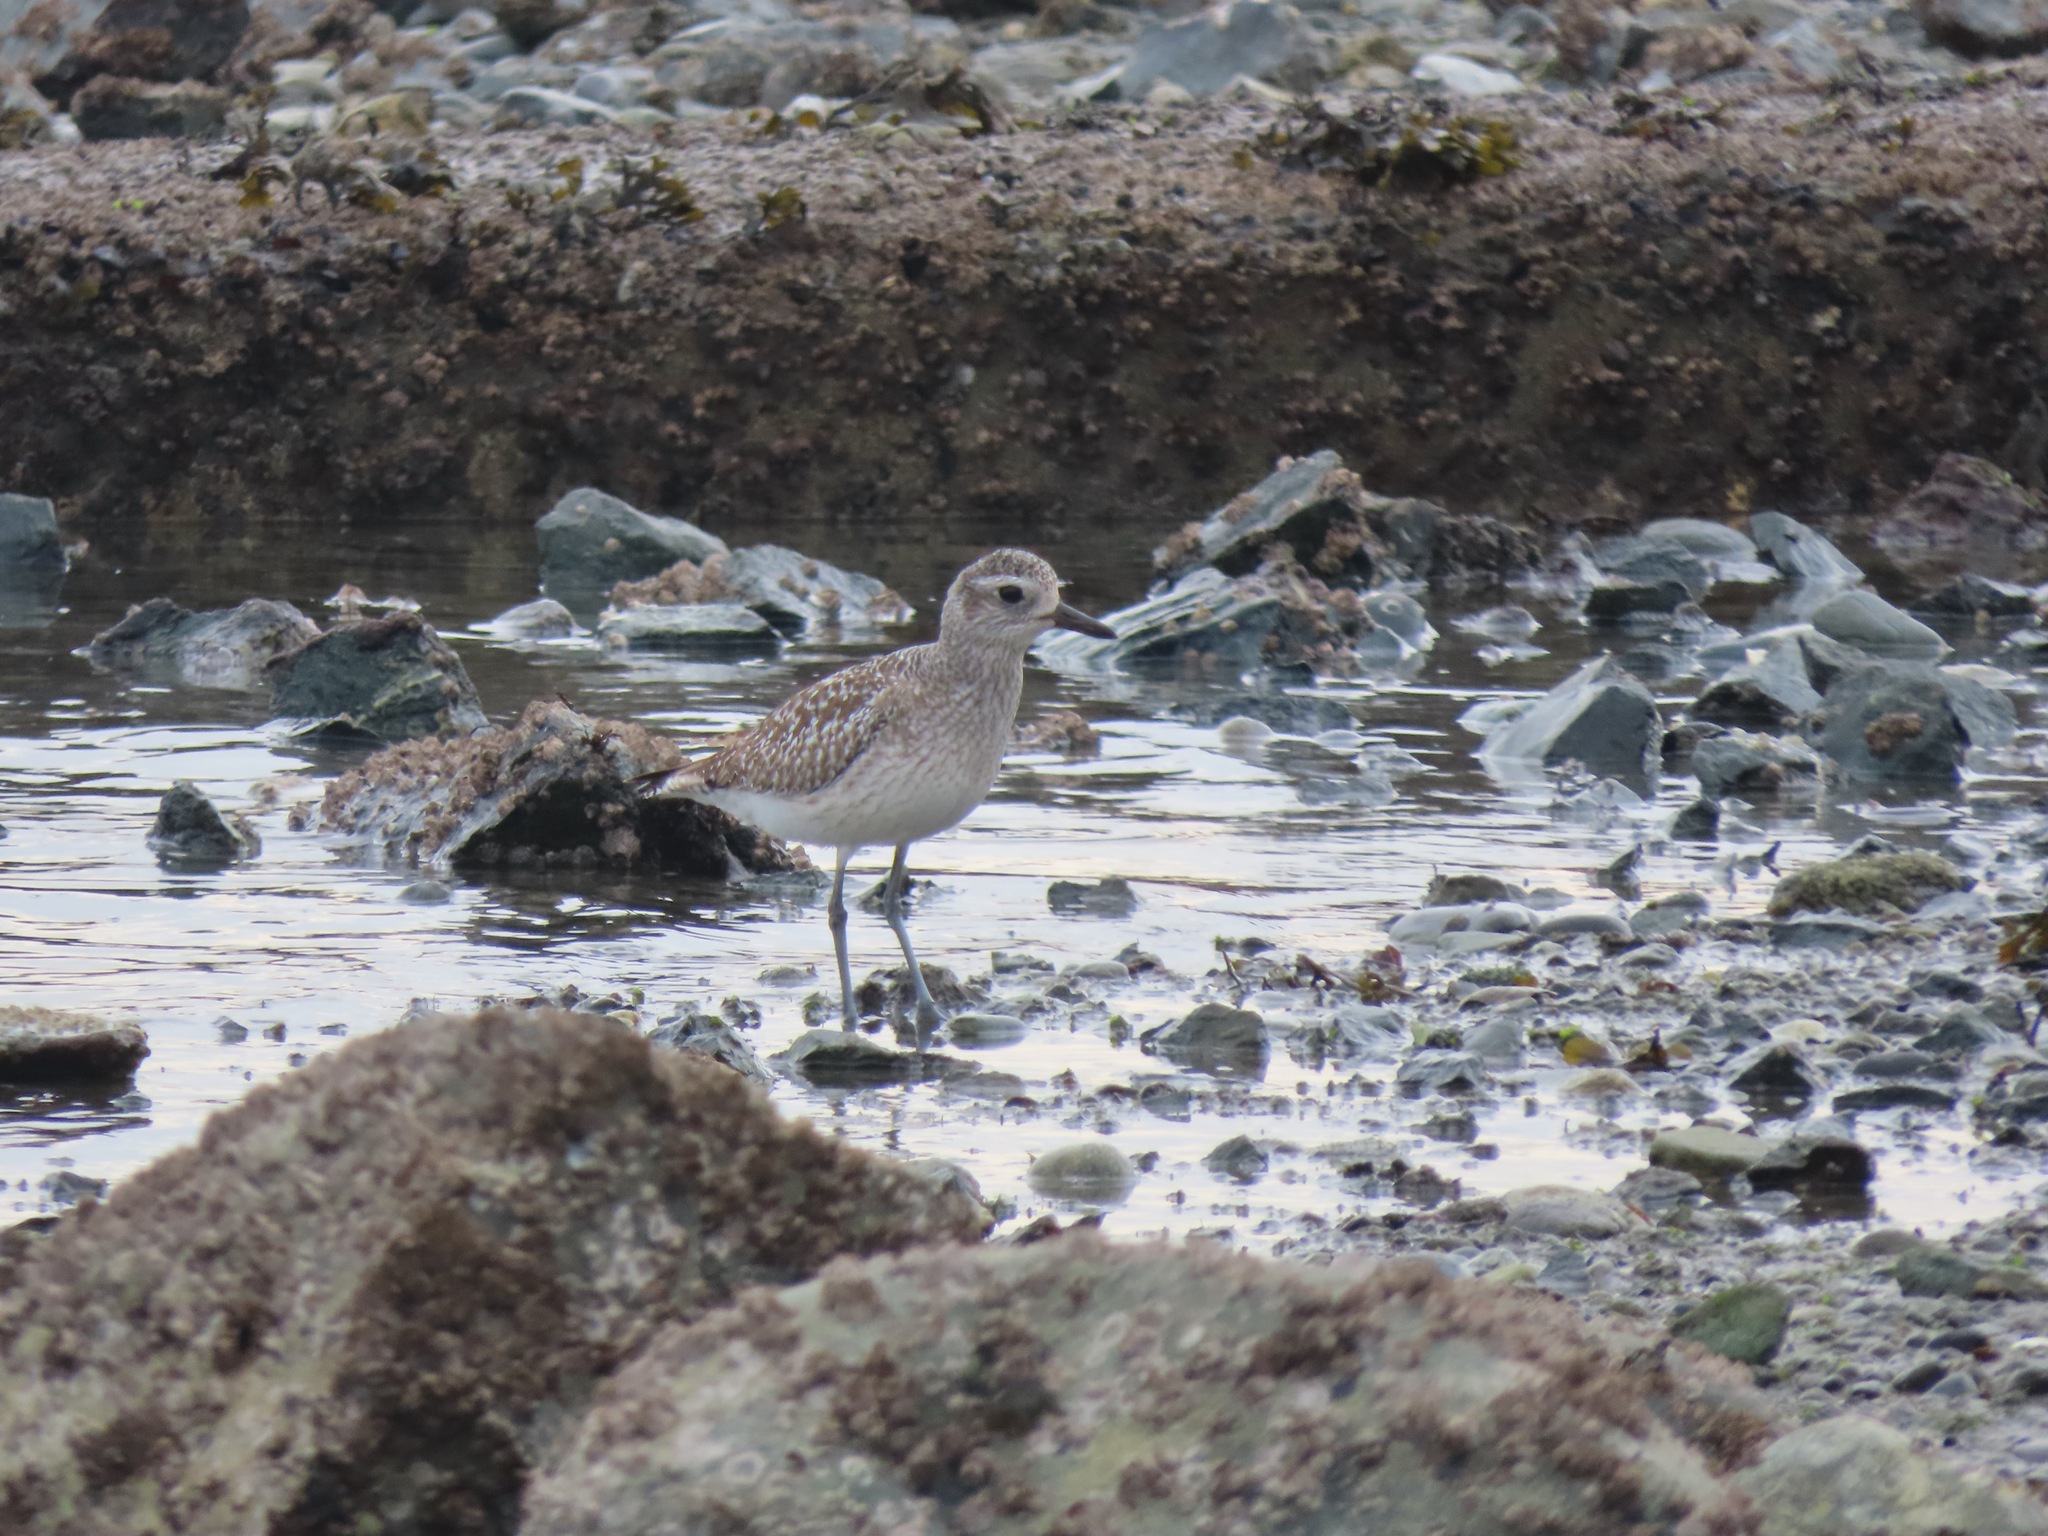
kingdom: Animalia
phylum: Chordata
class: Aves
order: Charadriiformes
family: Charadriidae
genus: Pluvialis
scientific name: Pluvialis squatarola
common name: Grey plover
